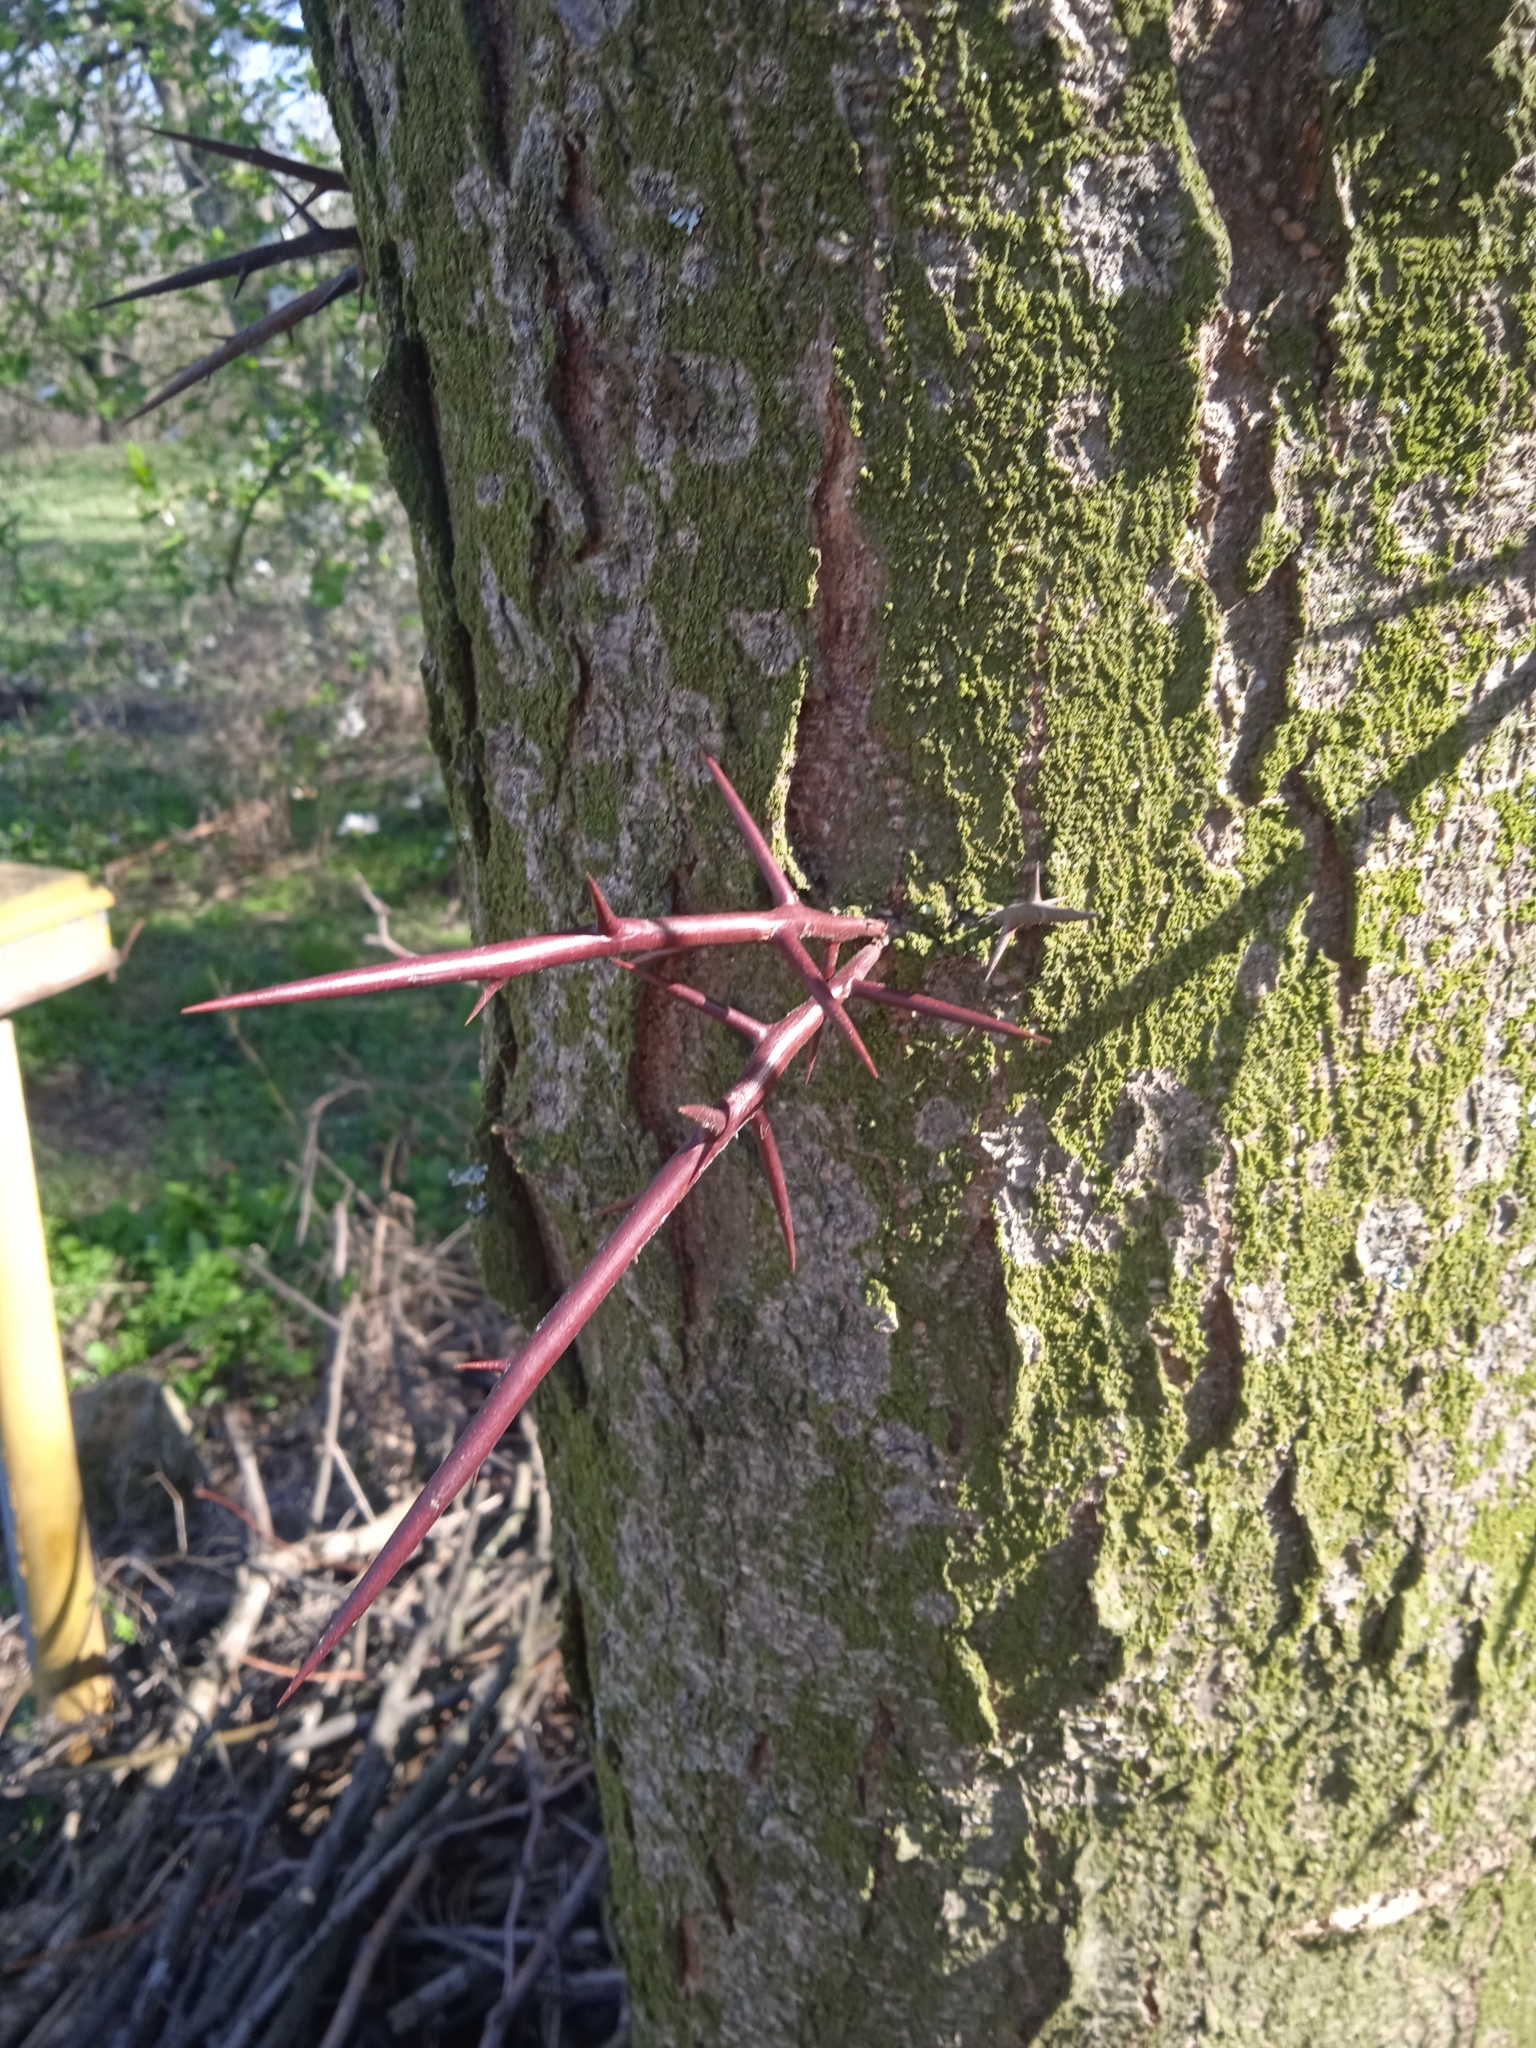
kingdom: Plantae
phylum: Tracheophyta
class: Magnoliopsida
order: Fabales
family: Fabaceae
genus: Gleditsia
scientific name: Gleditsia triacanthos
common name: Common honeylocust
